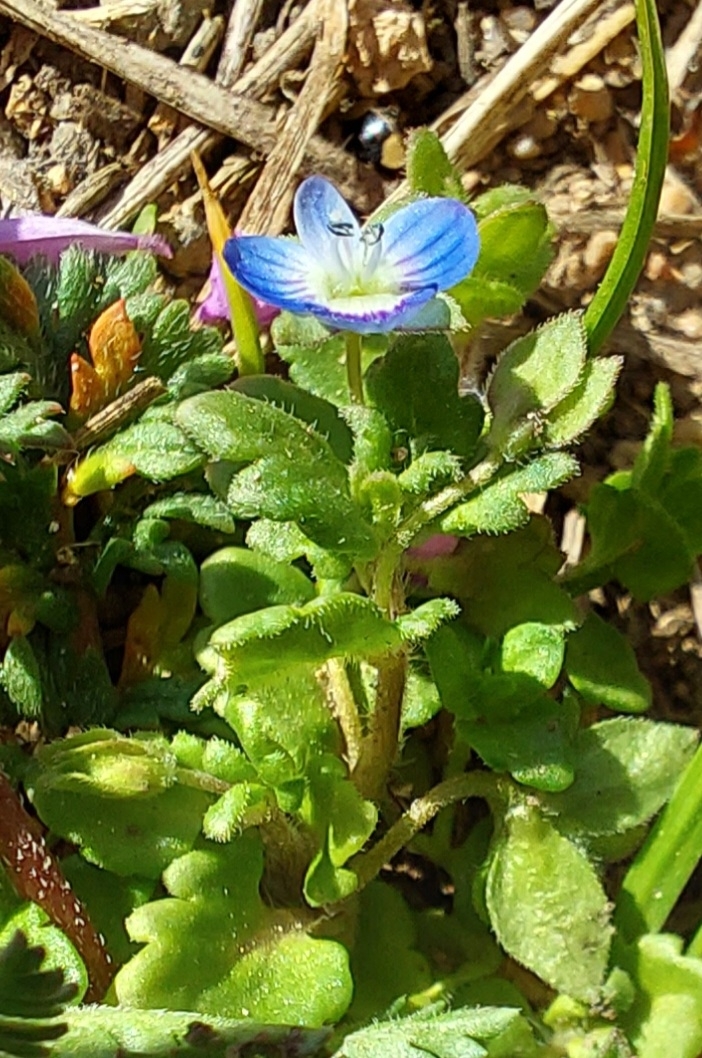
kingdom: Plantae
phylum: Tracheophyta
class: Magnoliopsida
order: Lamiales
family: Plantaginaceae
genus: Veronica
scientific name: Veronica polita
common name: Grey field-speedwell
